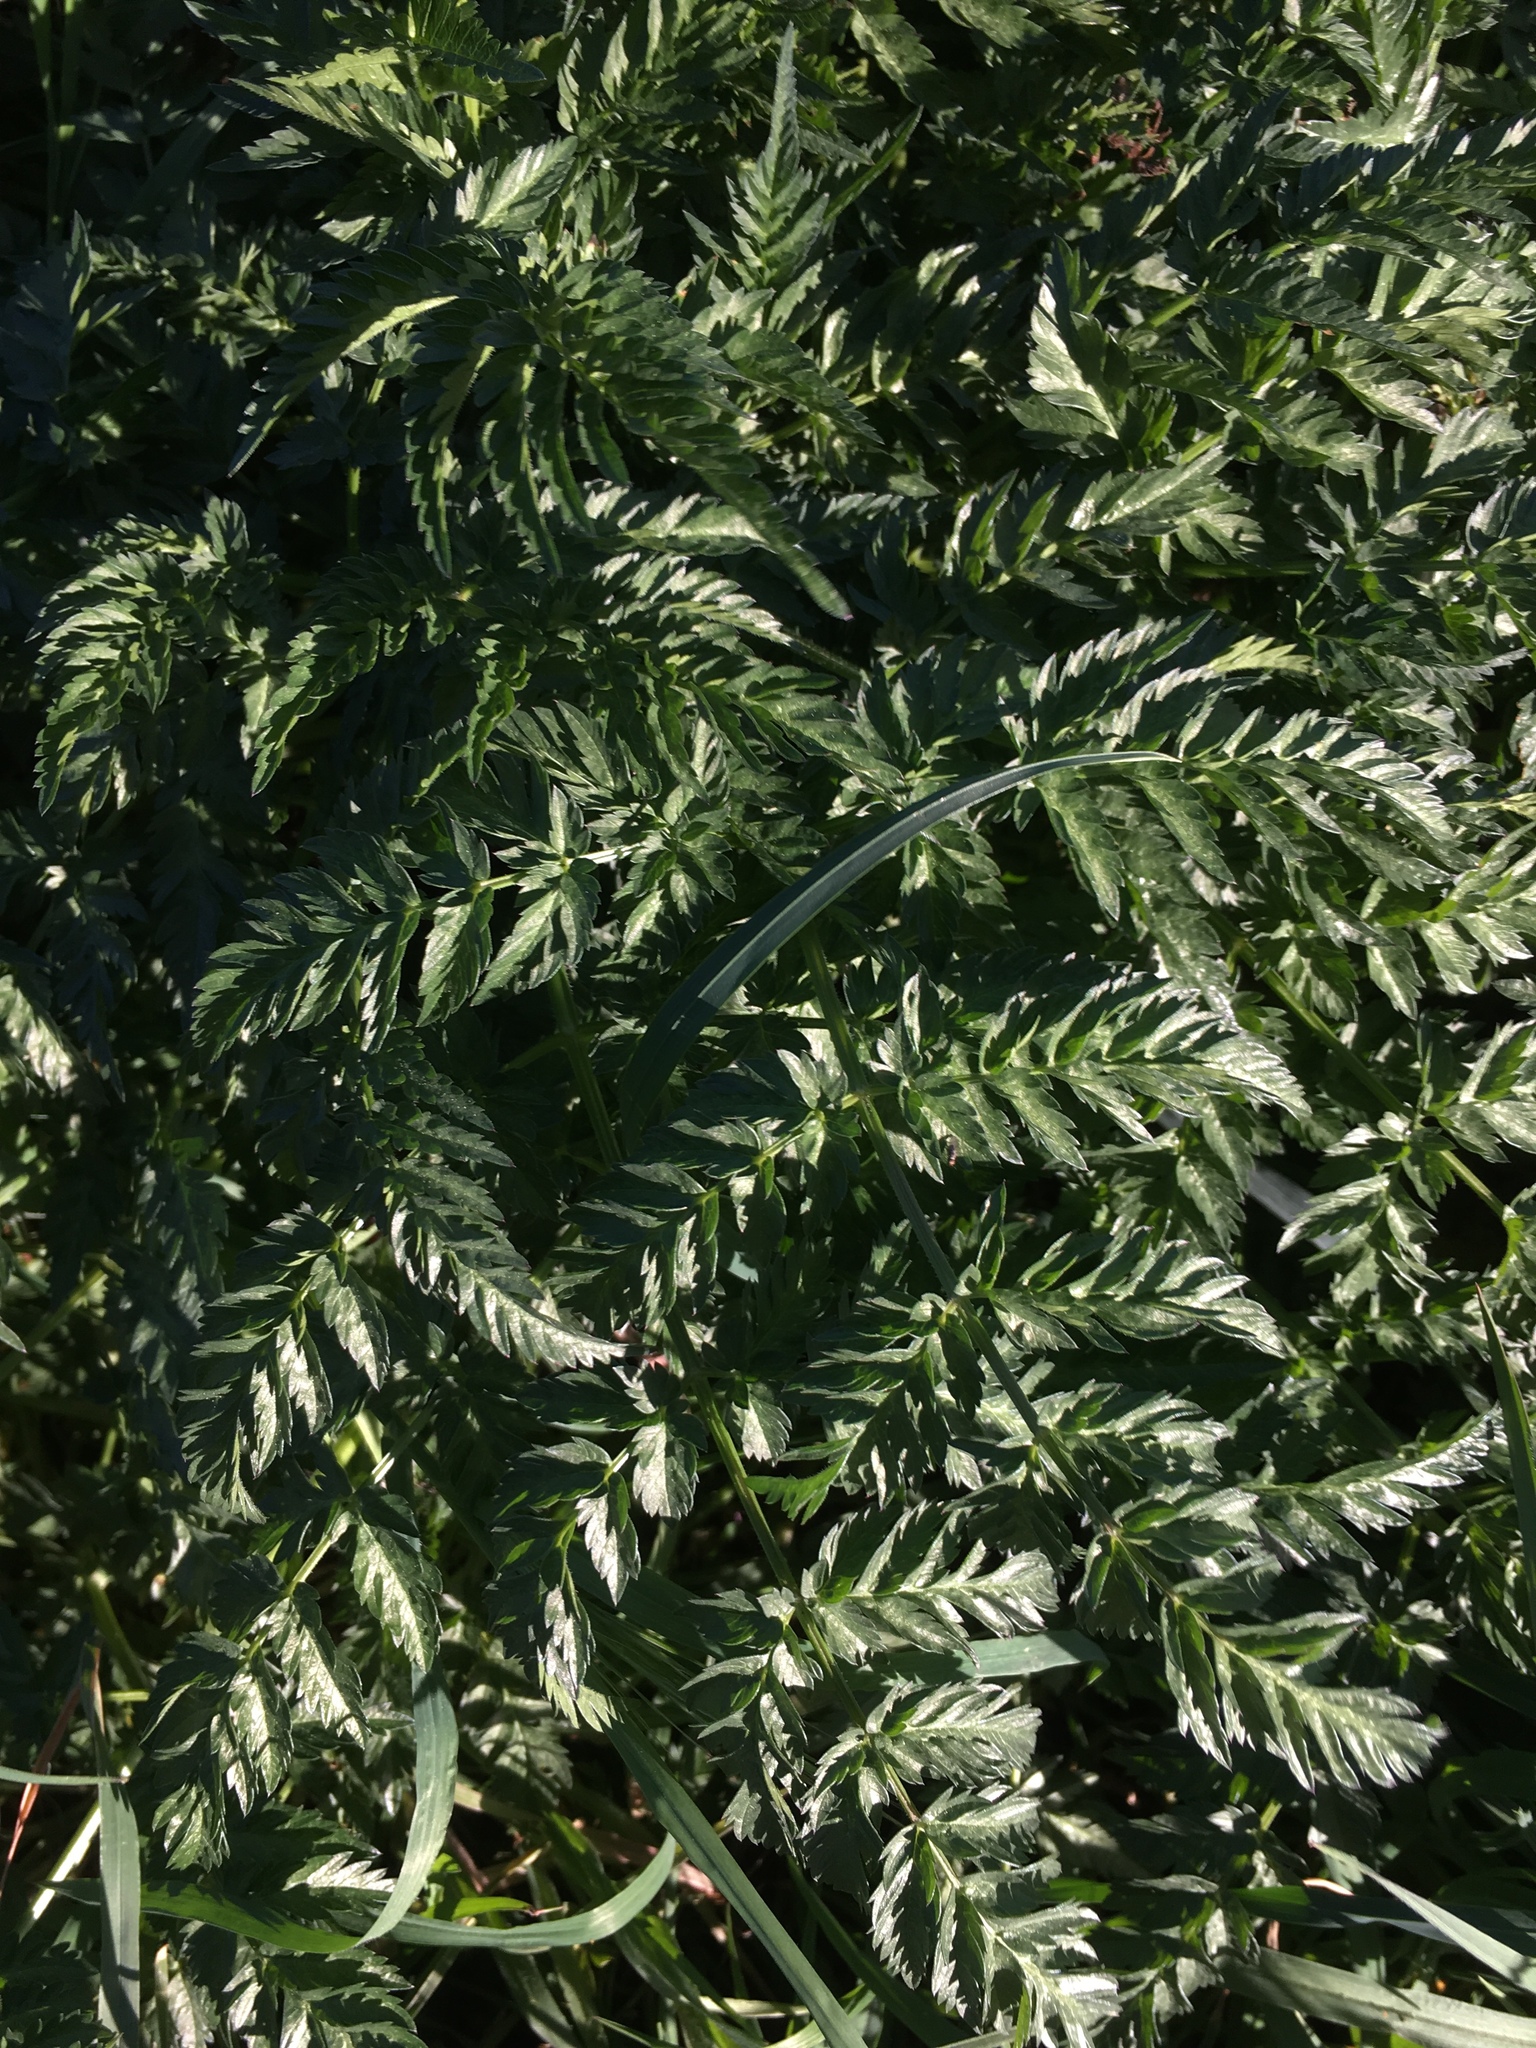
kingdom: Plantae
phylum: Tracheophyta
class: Magnoliopsida
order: Apiales
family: Apiaceae
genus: Anthriscus
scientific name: Anthriscus sylvestris
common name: Cow parsley
